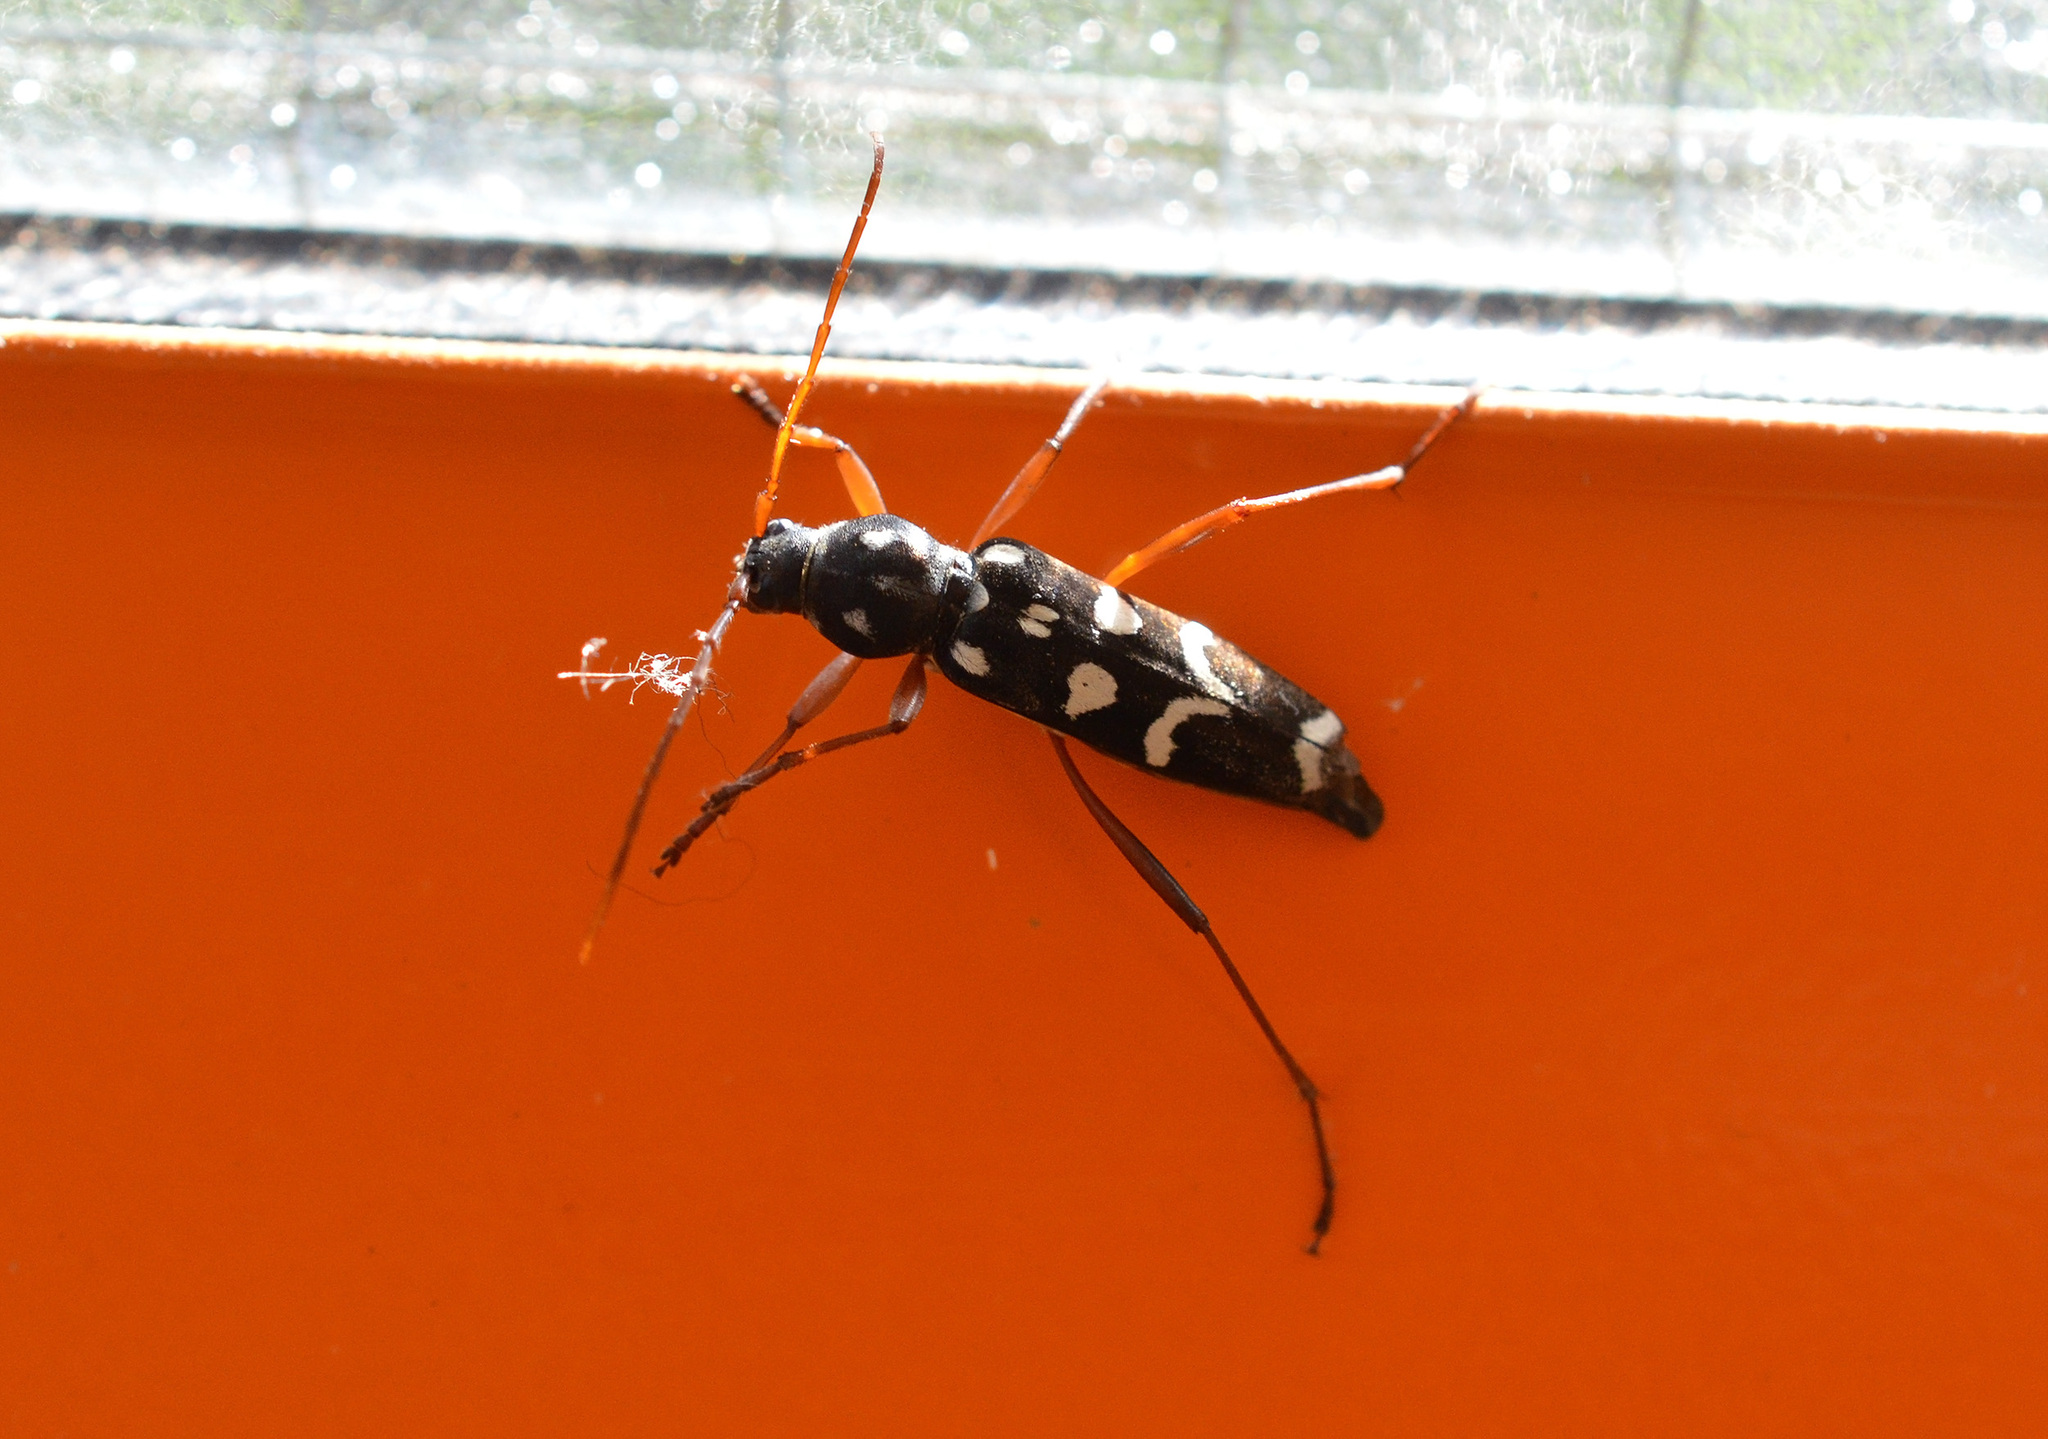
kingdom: Animalia
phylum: Arthropoda
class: Insecta
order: Coleoptera
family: Cerambycidae
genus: Isotomus
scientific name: Isotomus speciosus
